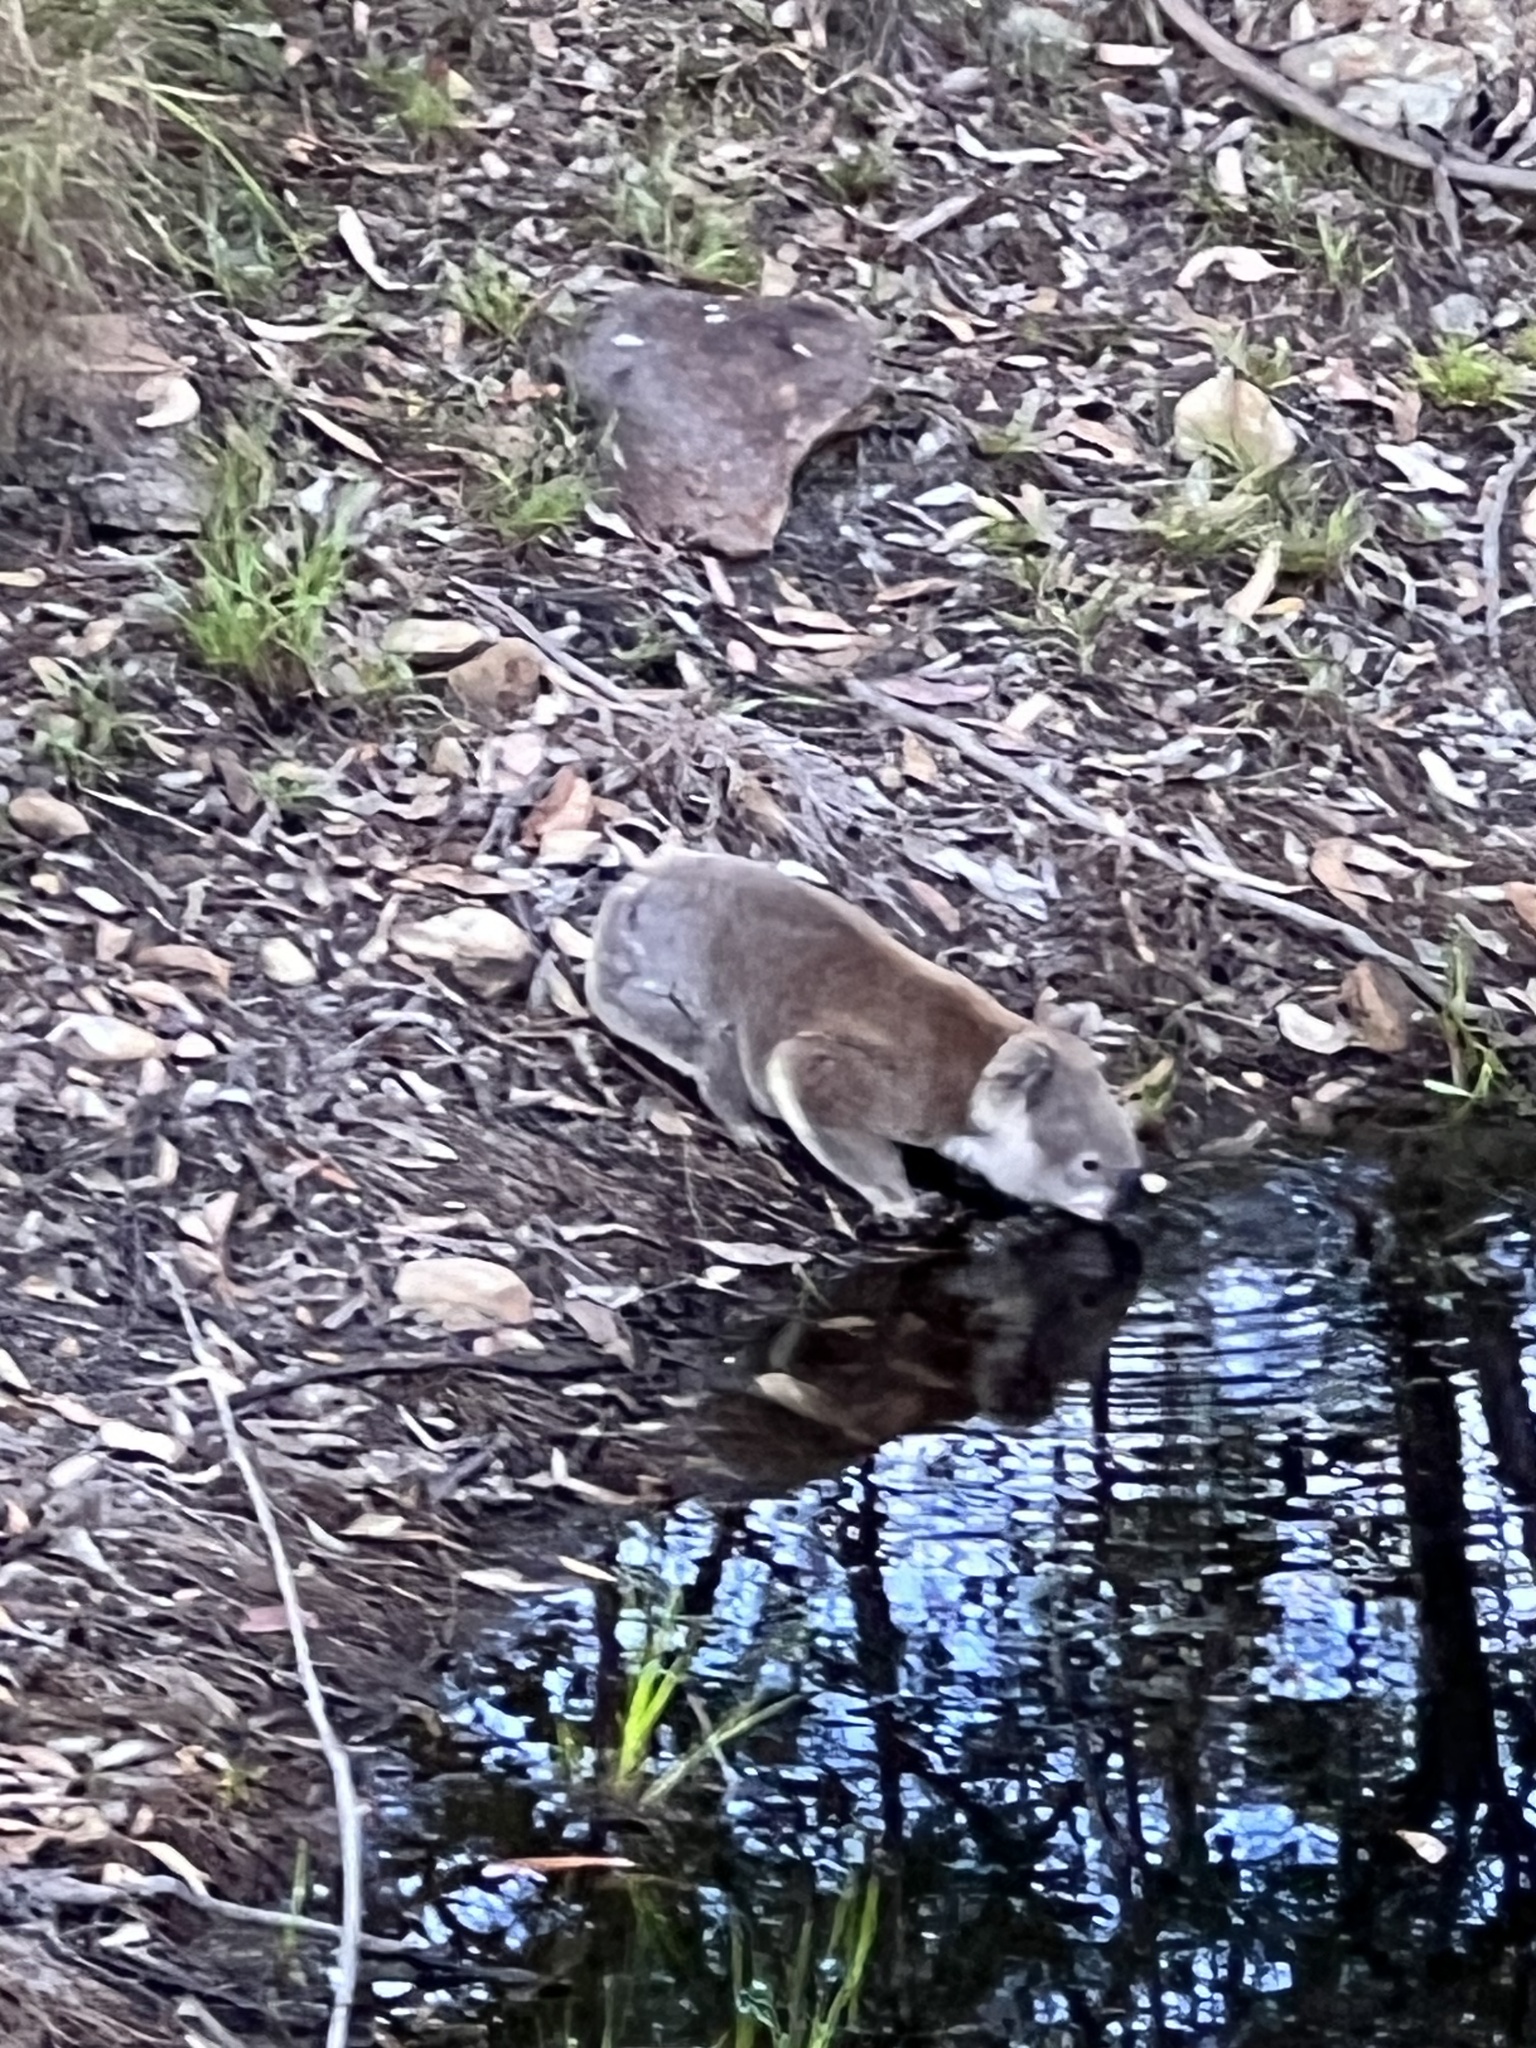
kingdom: Animalia
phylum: Chordata
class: Mammalia
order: Diprotodontia
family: Phascolarctidae
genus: Phascolarctos
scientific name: Phascolarctos cinereus
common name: Koala
